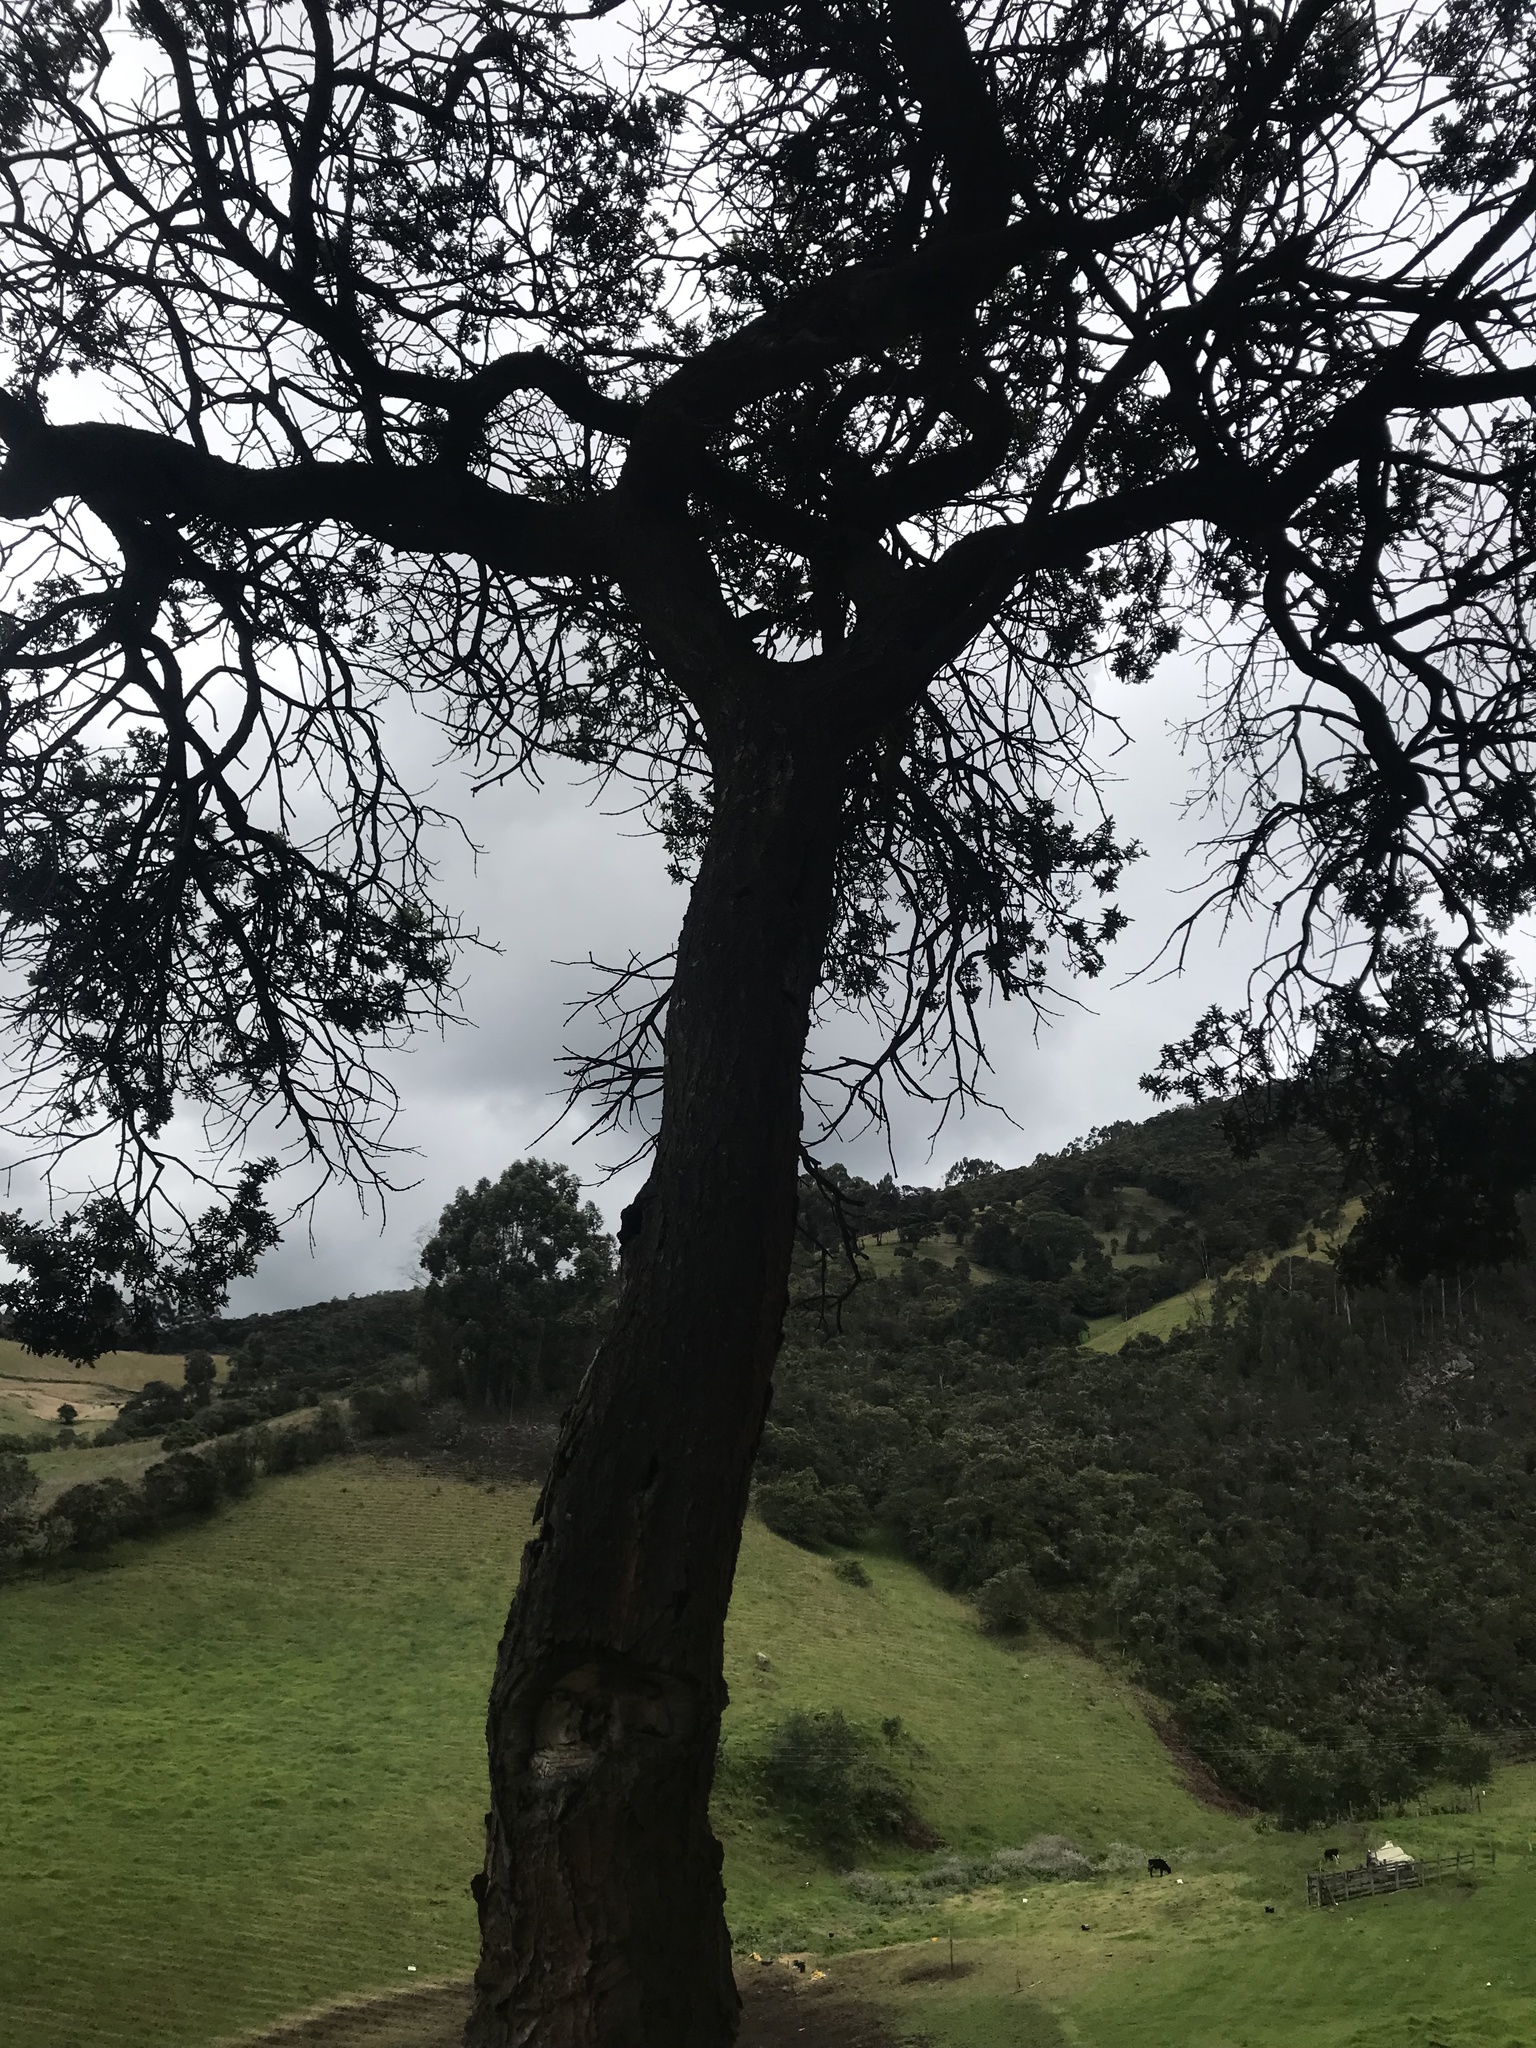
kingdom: Plantae
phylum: Tracheophyta
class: Magnoliopsida
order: Oxalidales
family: Cunoniaceae
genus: Weinmannia
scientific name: Weinmannia tomentosa
